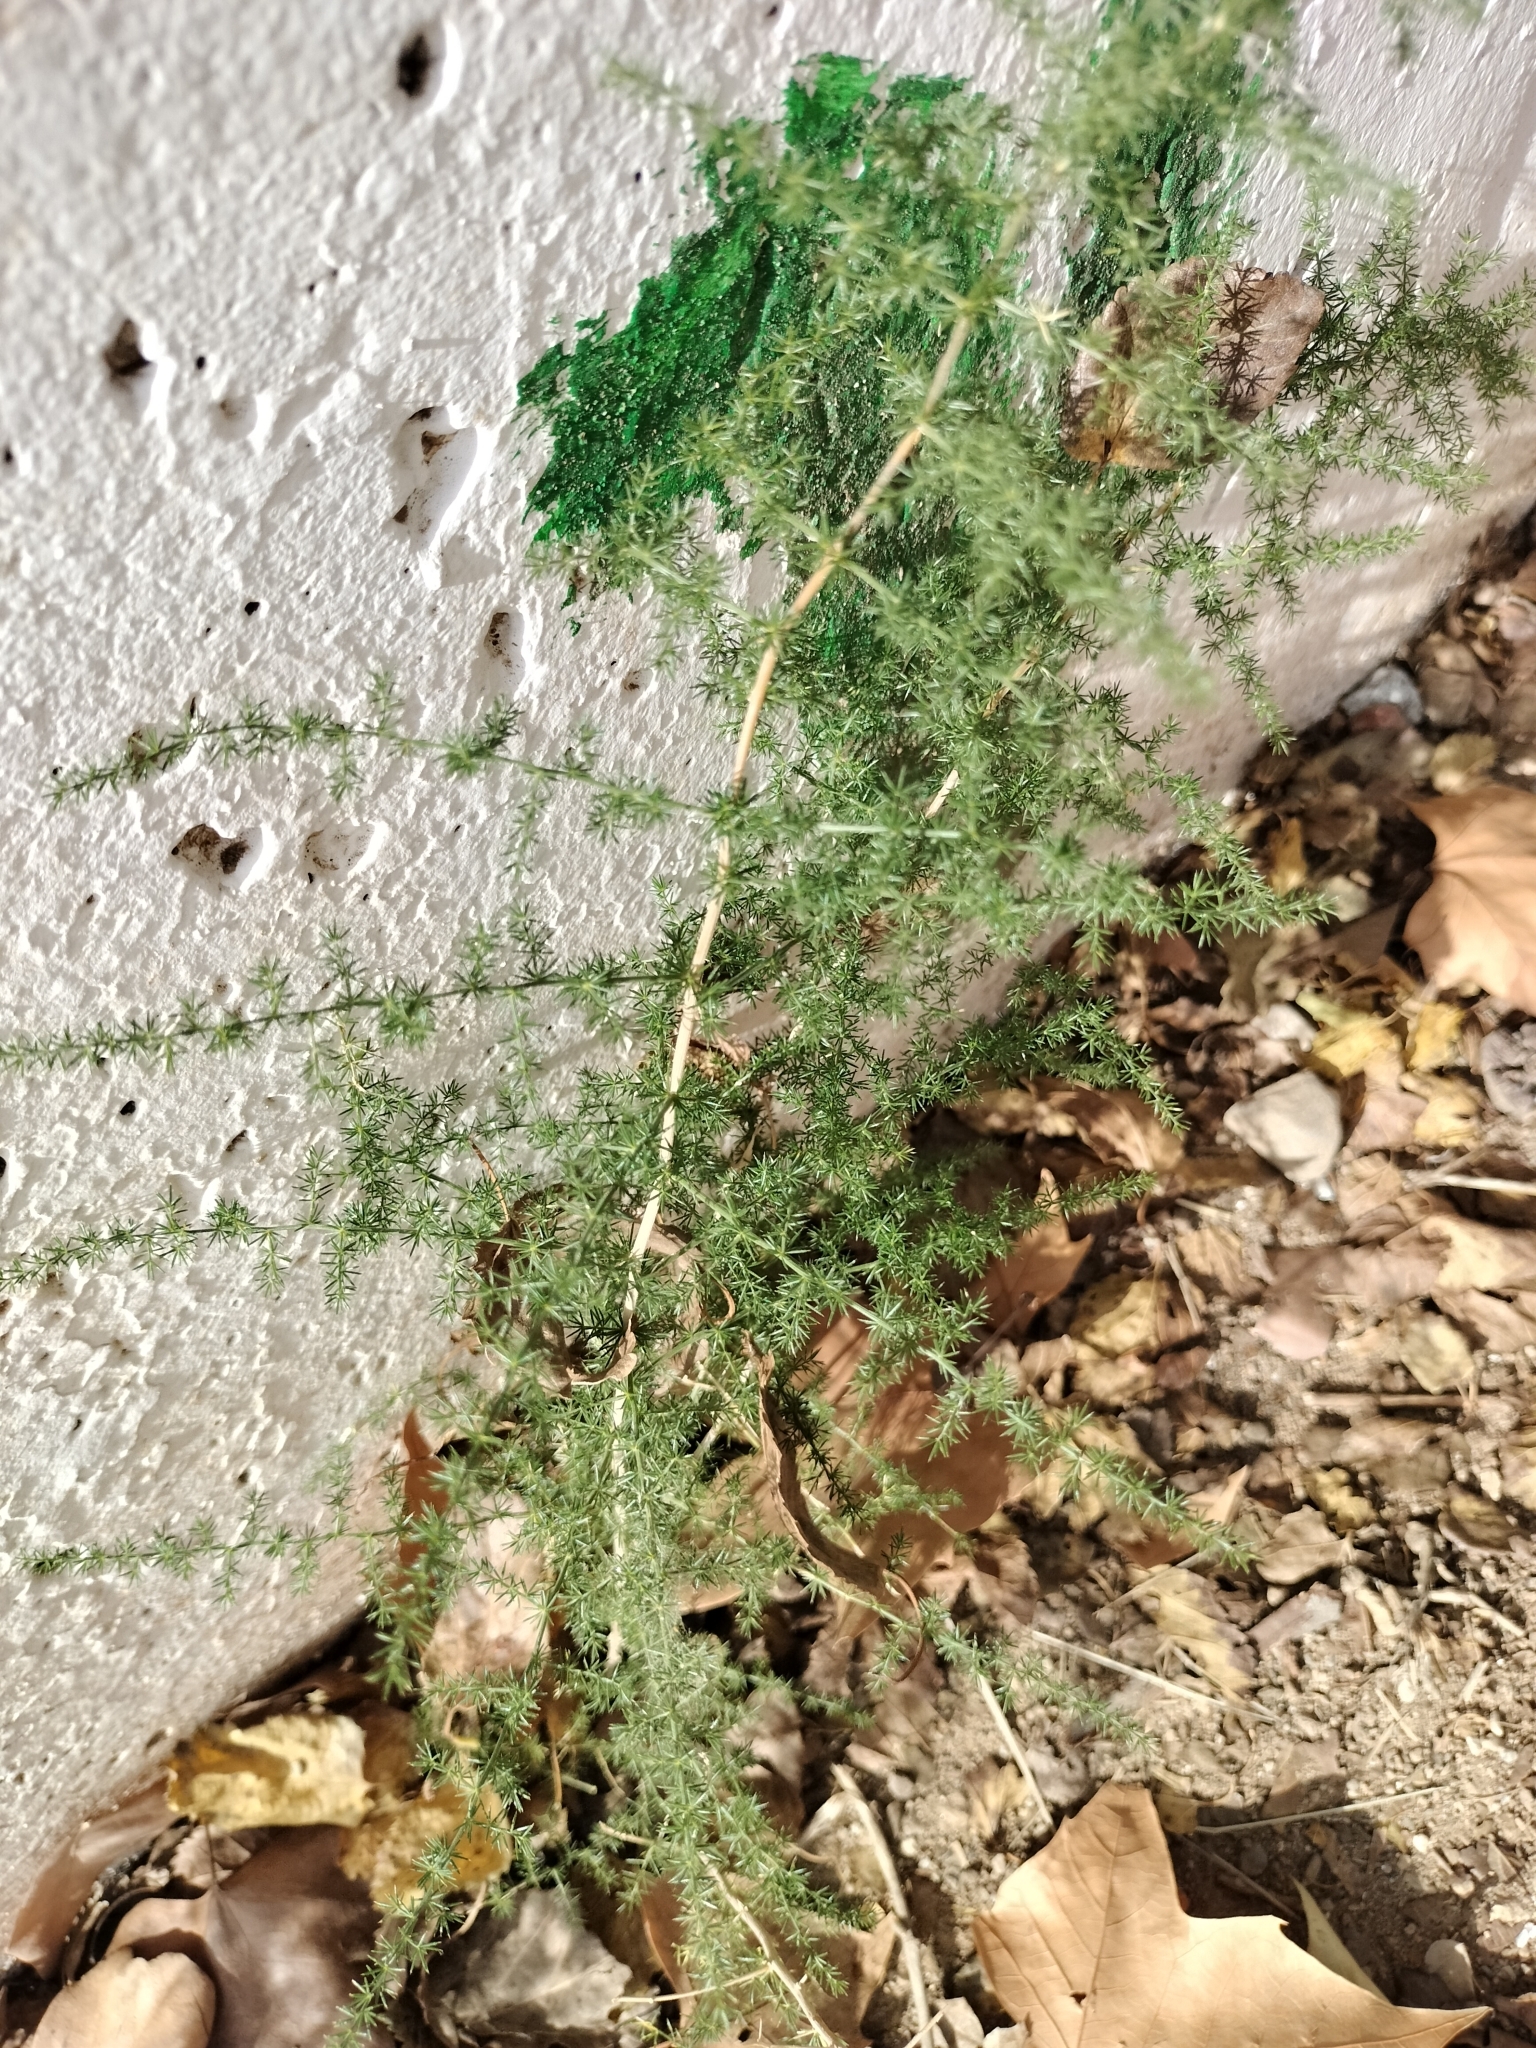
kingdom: Plantae
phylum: Tracheophyta
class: Liliopsida
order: Asparagales
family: Asparagaceae
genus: Asparagus
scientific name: Asparagus acutifolius
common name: Wild asparagus
